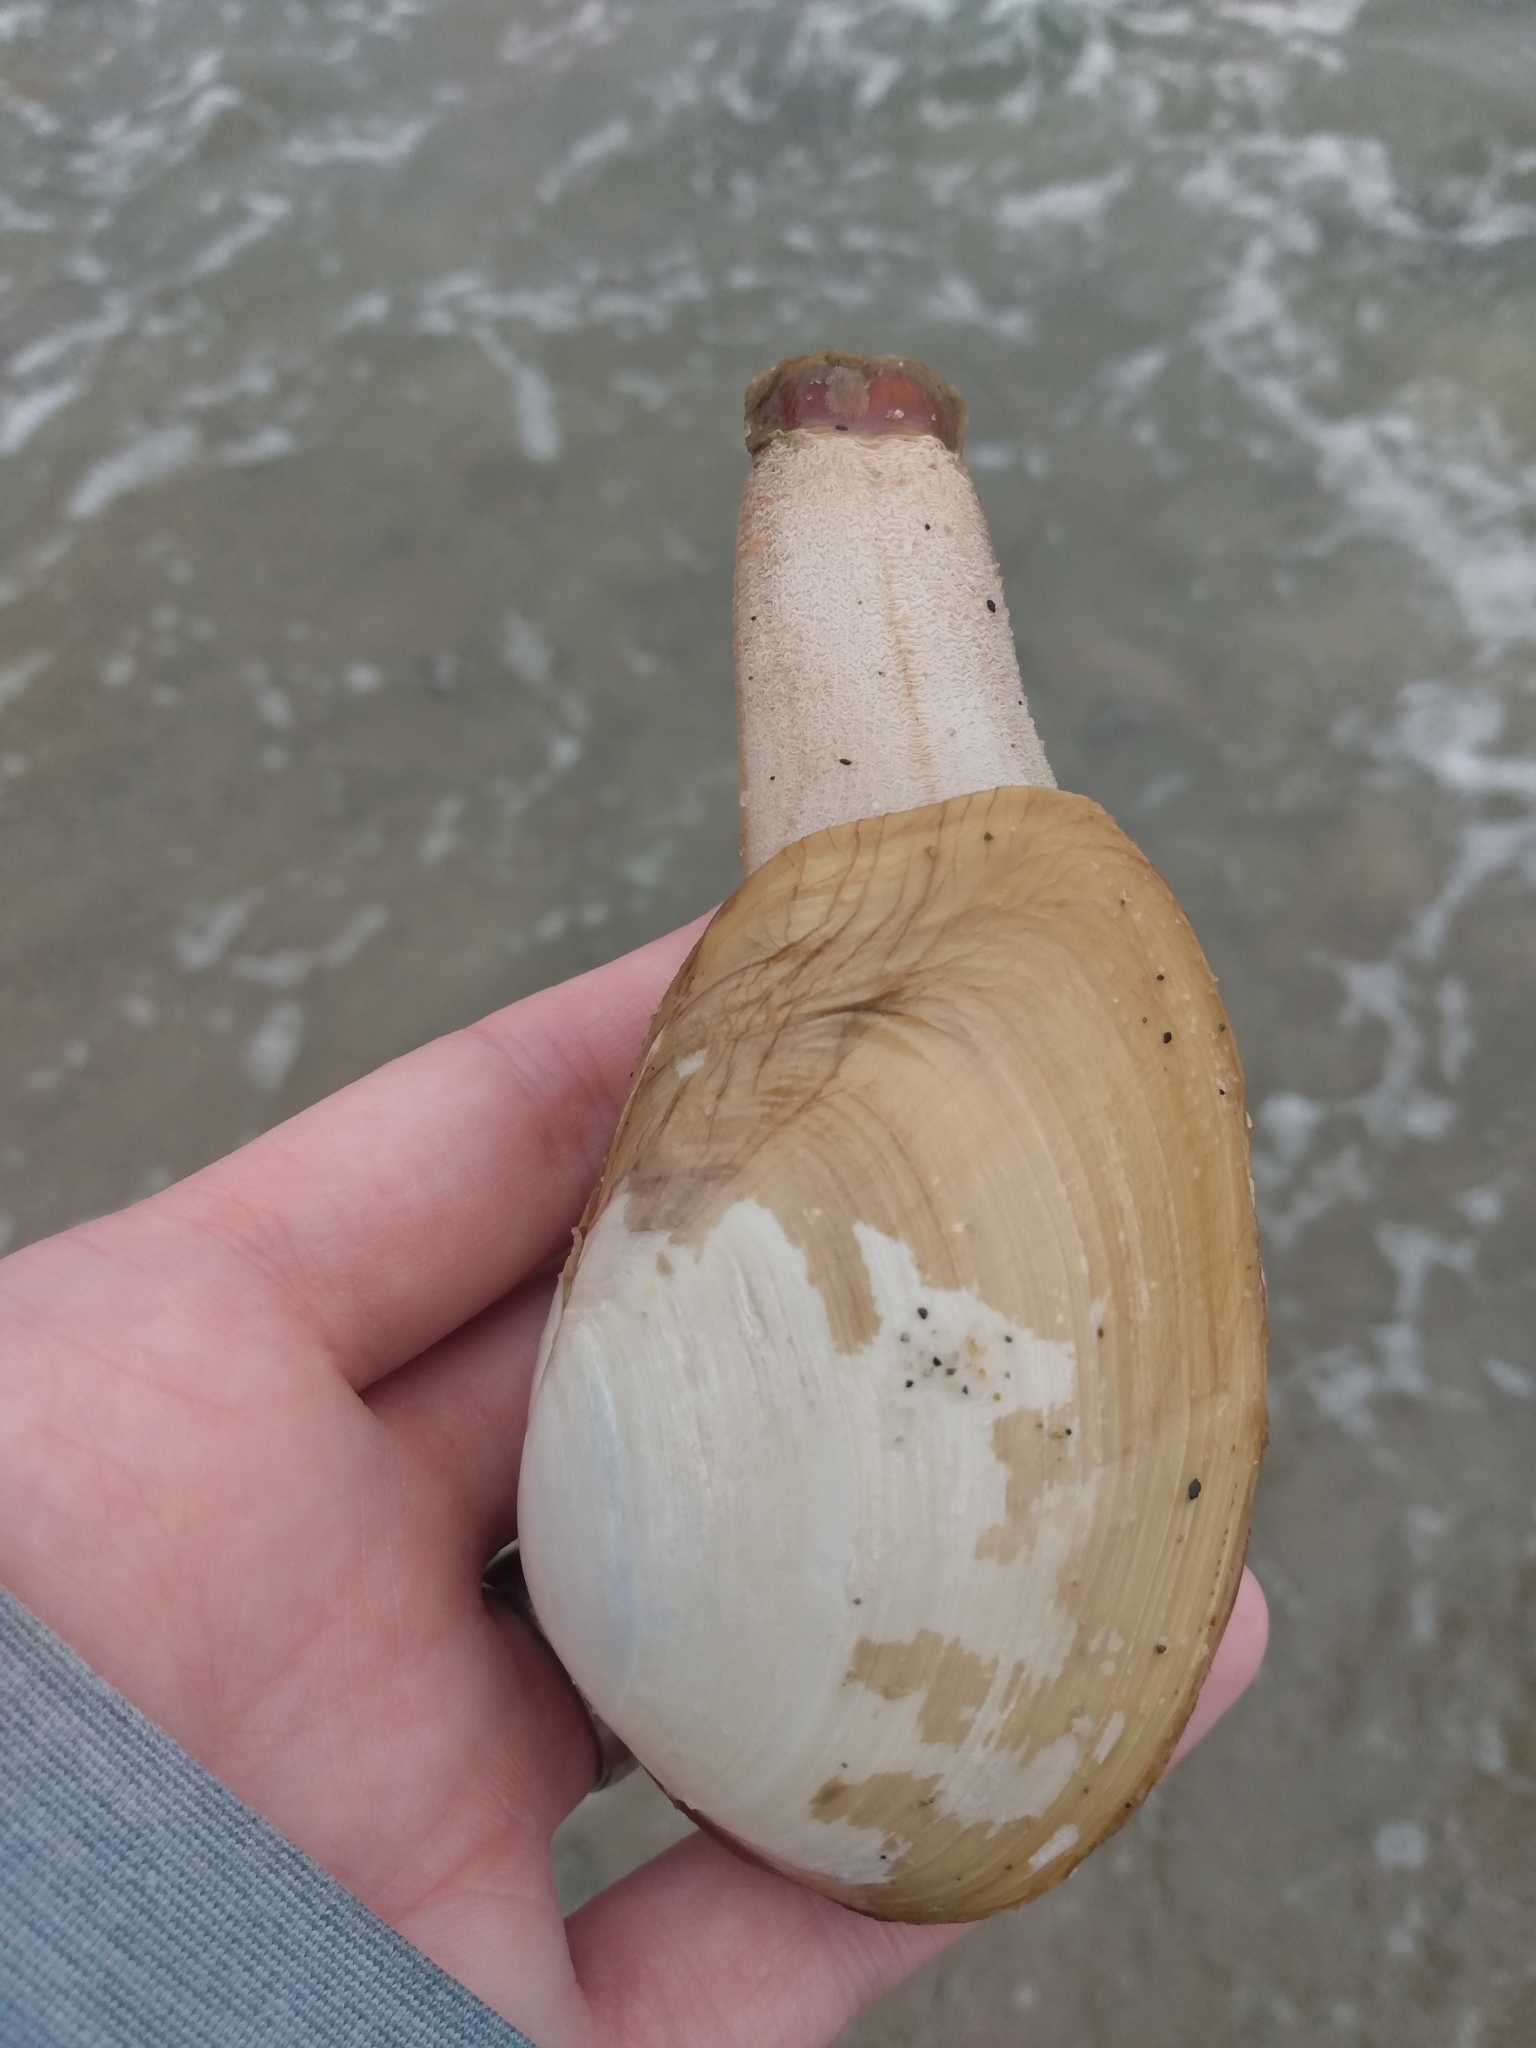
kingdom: Animalia
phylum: Mollusca
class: Bivalvia
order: Venerida
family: Mactridae
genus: Tresus
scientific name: Tresus nuttallii
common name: Pacific gaper clam
